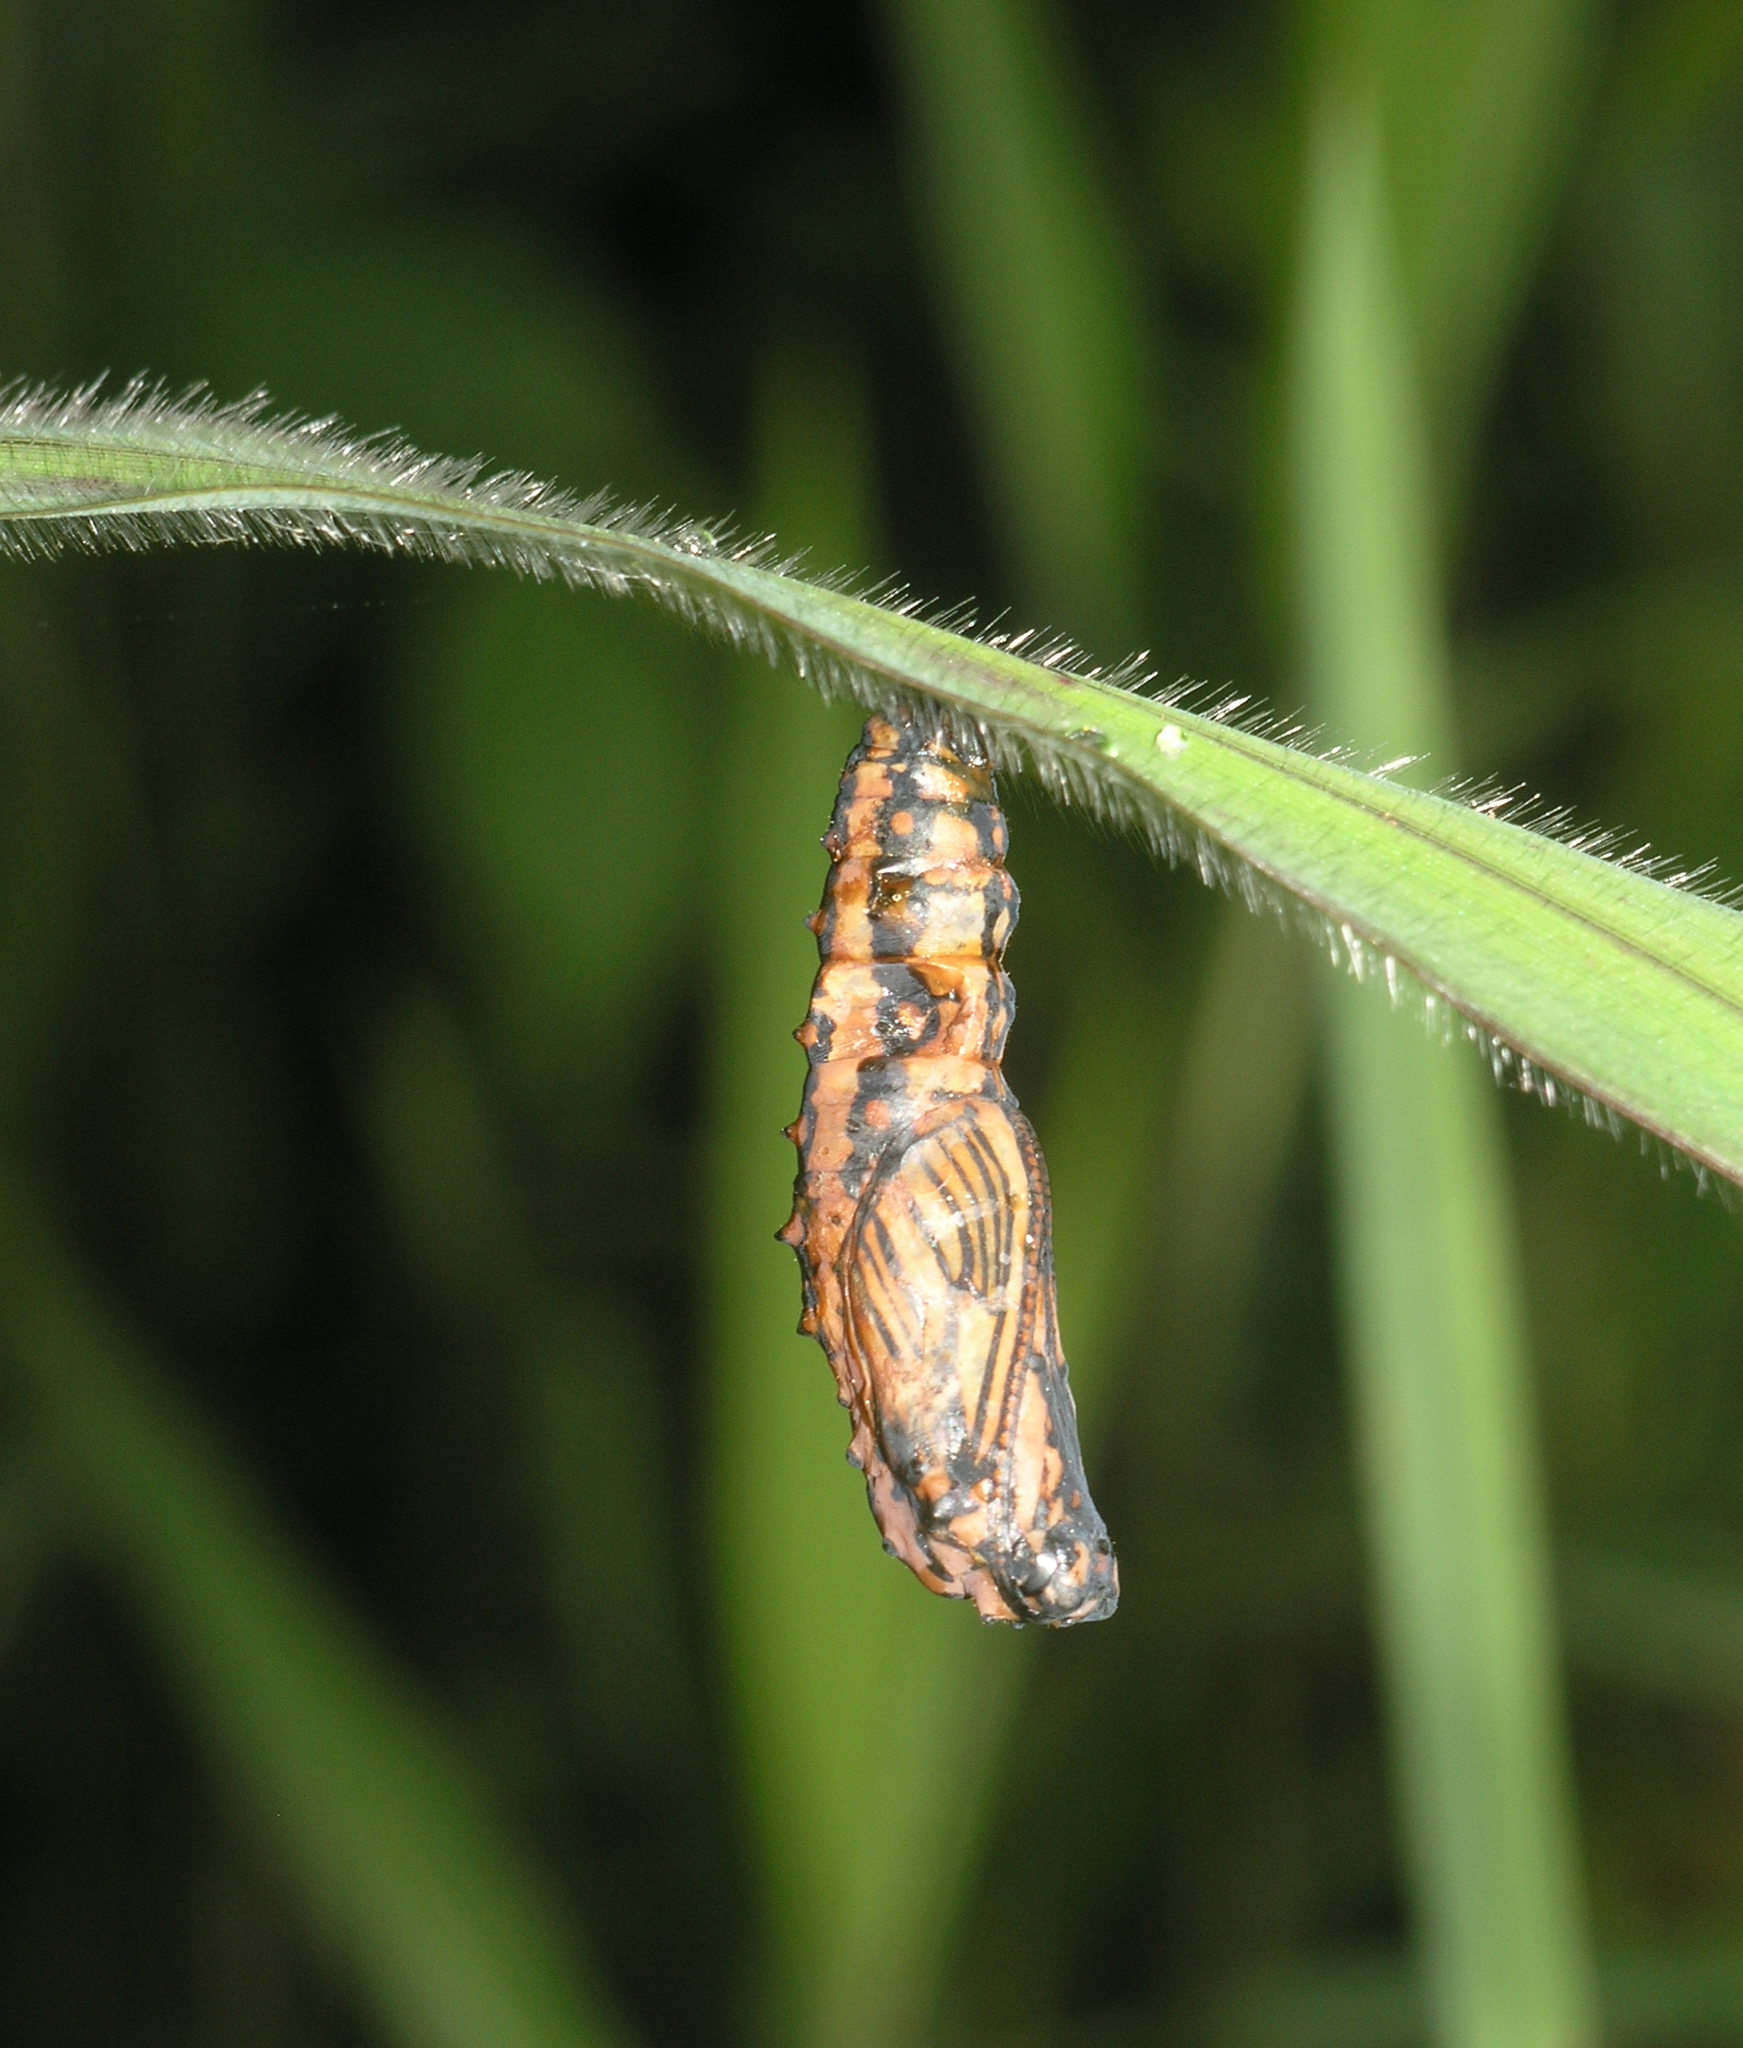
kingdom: Animalia
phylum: Arthropoda
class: Insecta
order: Lepidoptera
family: Nymphalidae
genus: Acraea
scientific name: Acraea Telchinia issoria
